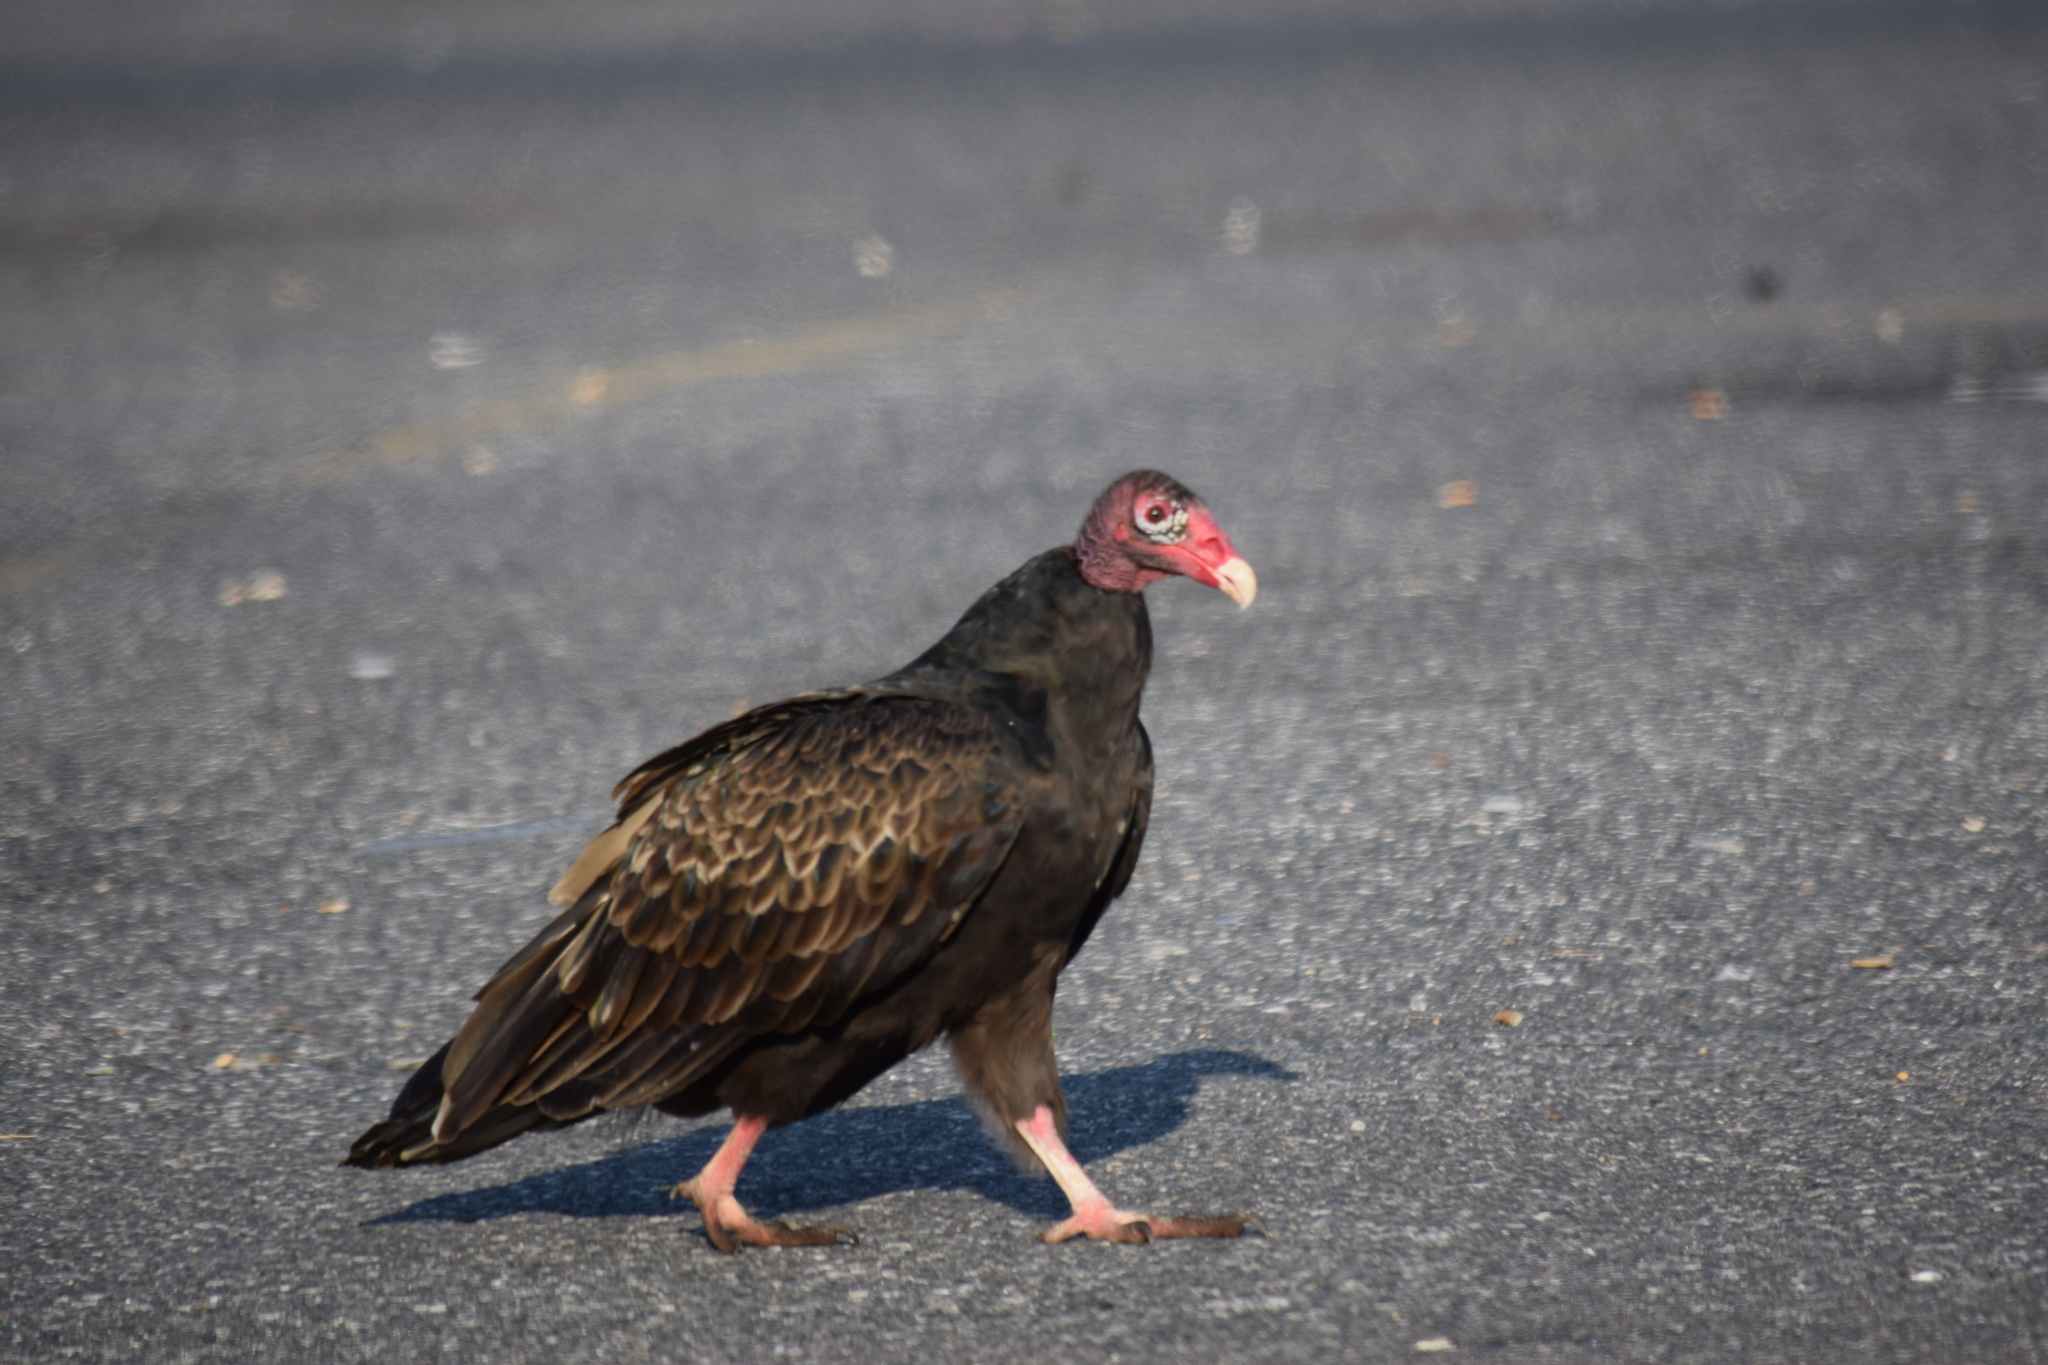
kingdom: Animalia
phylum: Chordata
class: Aves
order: Accipitriformes
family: Cathartidae
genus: Cathartes
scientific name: Cathartes aura
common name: Turkey vulture
